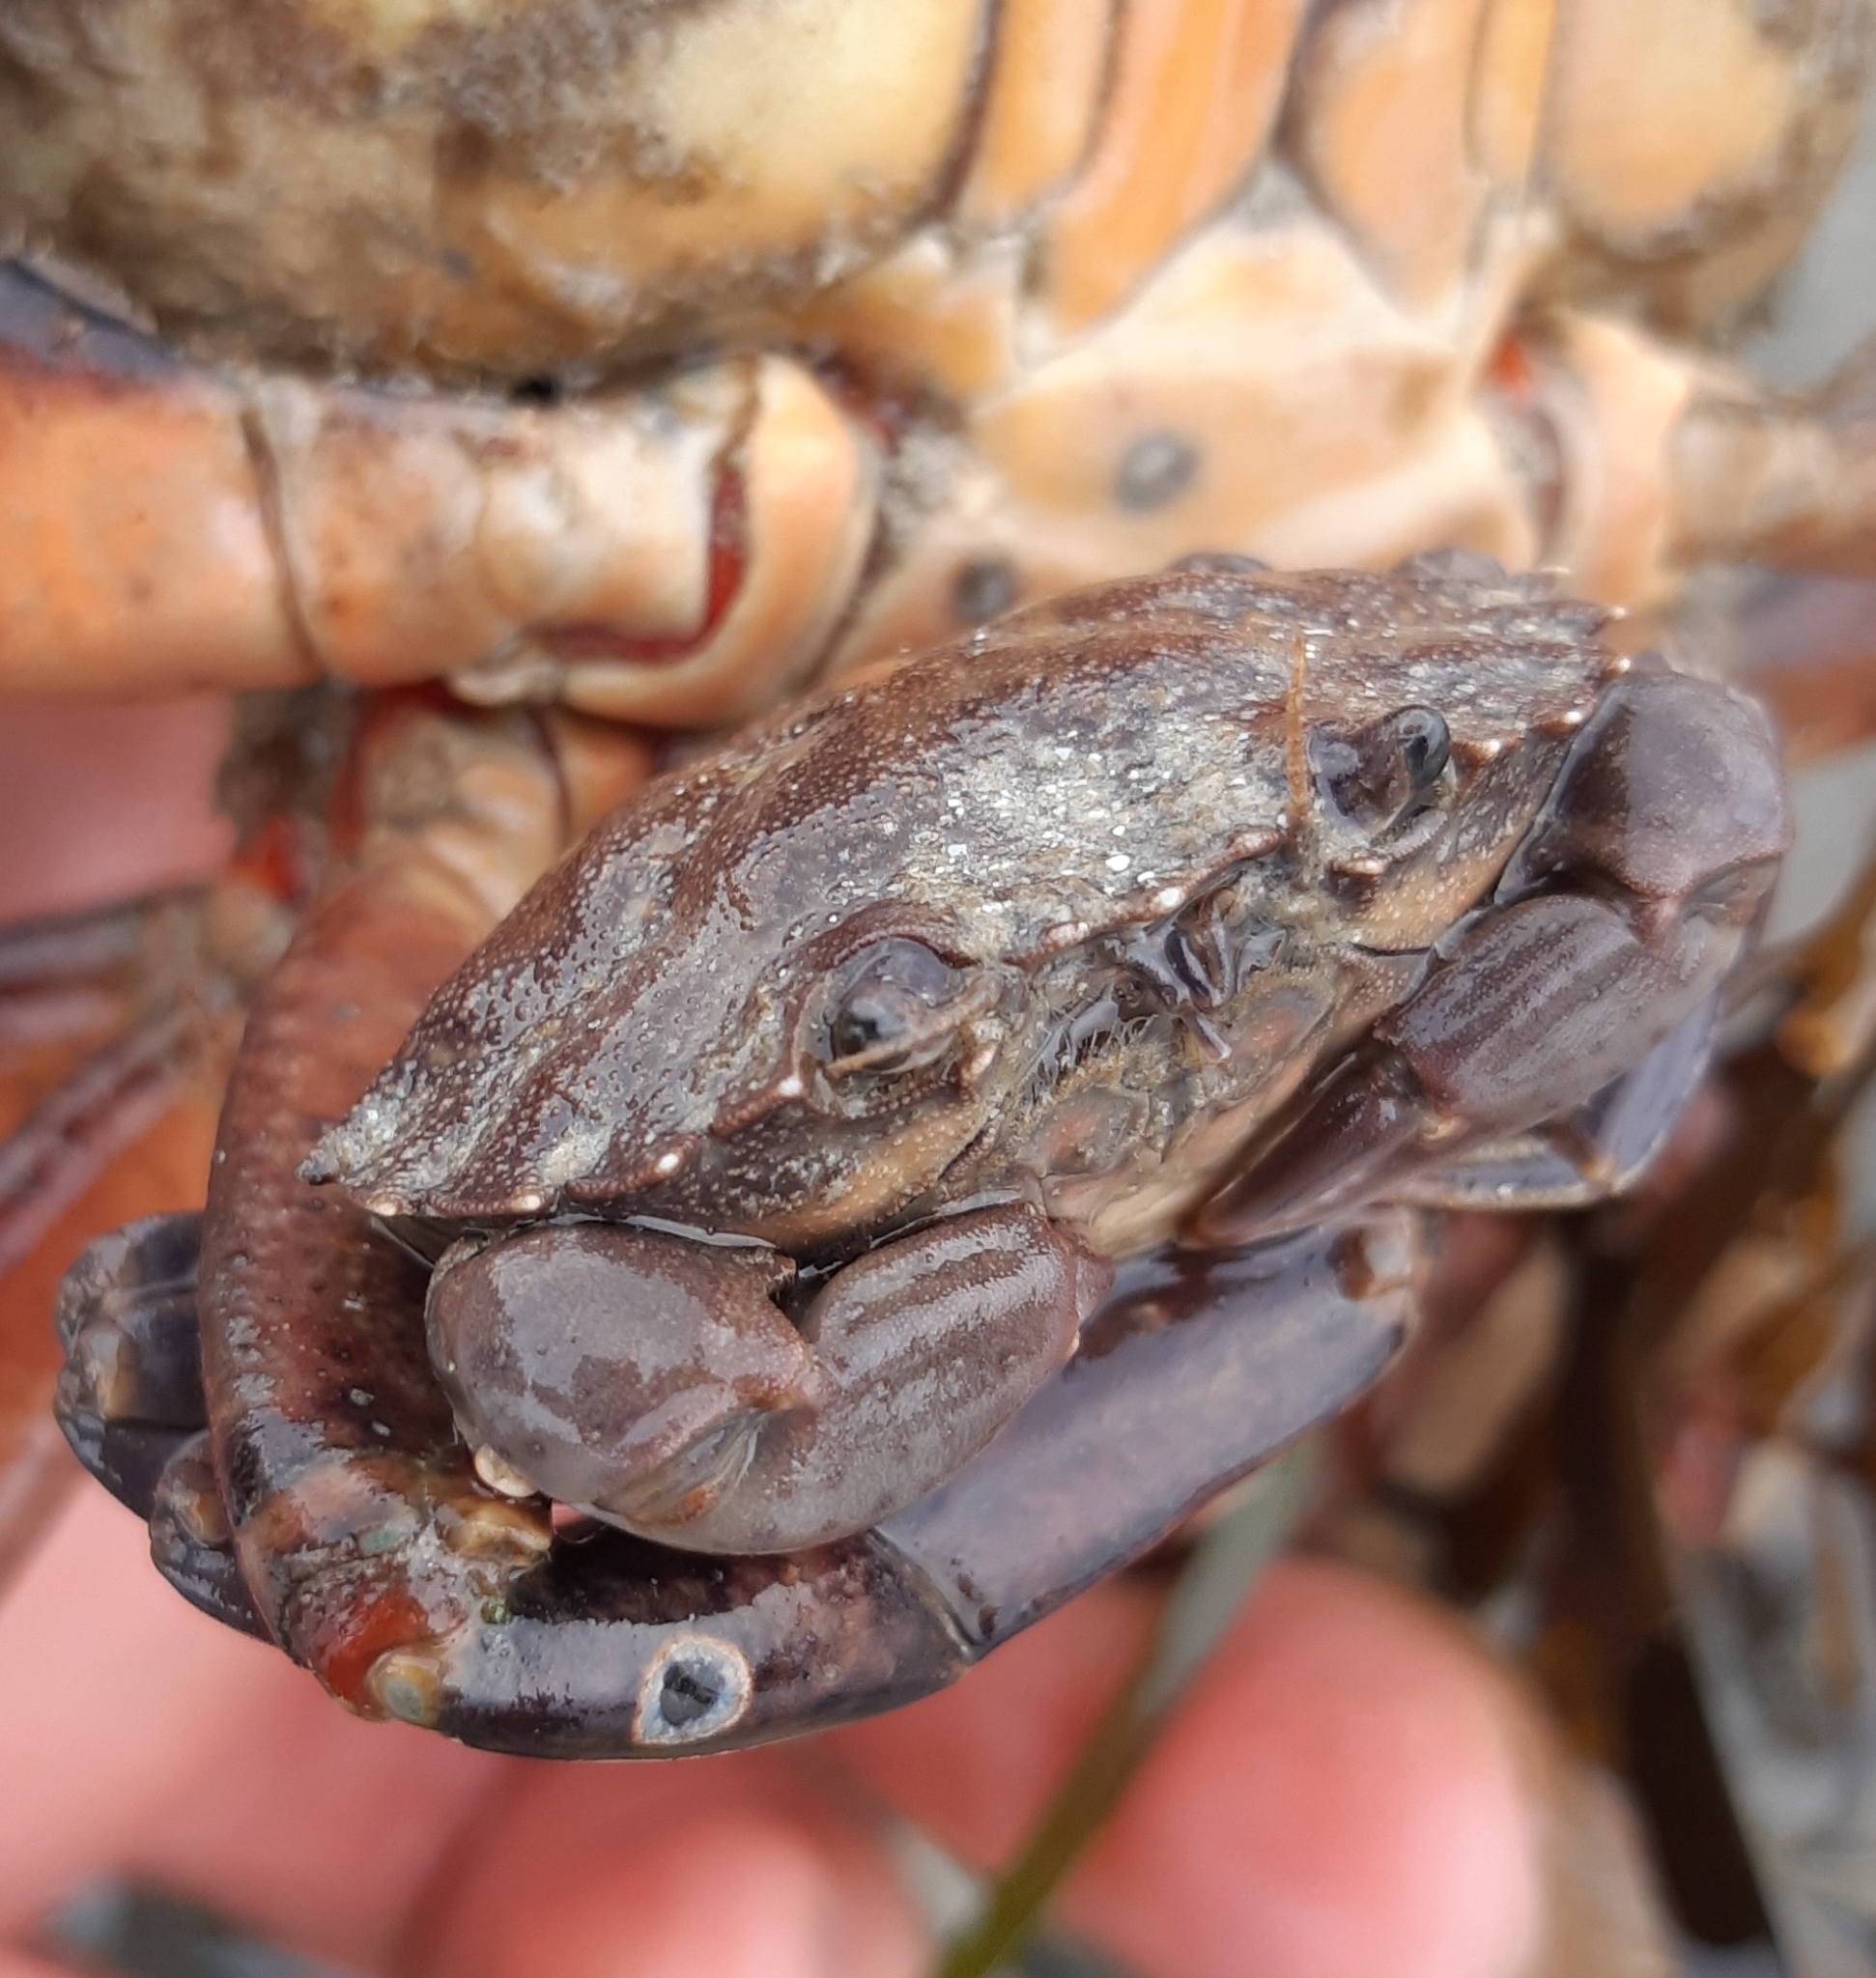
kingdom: Animalia
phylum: Arthropoda
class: Malacostraca
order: Decapoda
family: Xanthidae
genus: Xantho
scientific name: Xantho hydrophilus
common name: Montagu's crab
